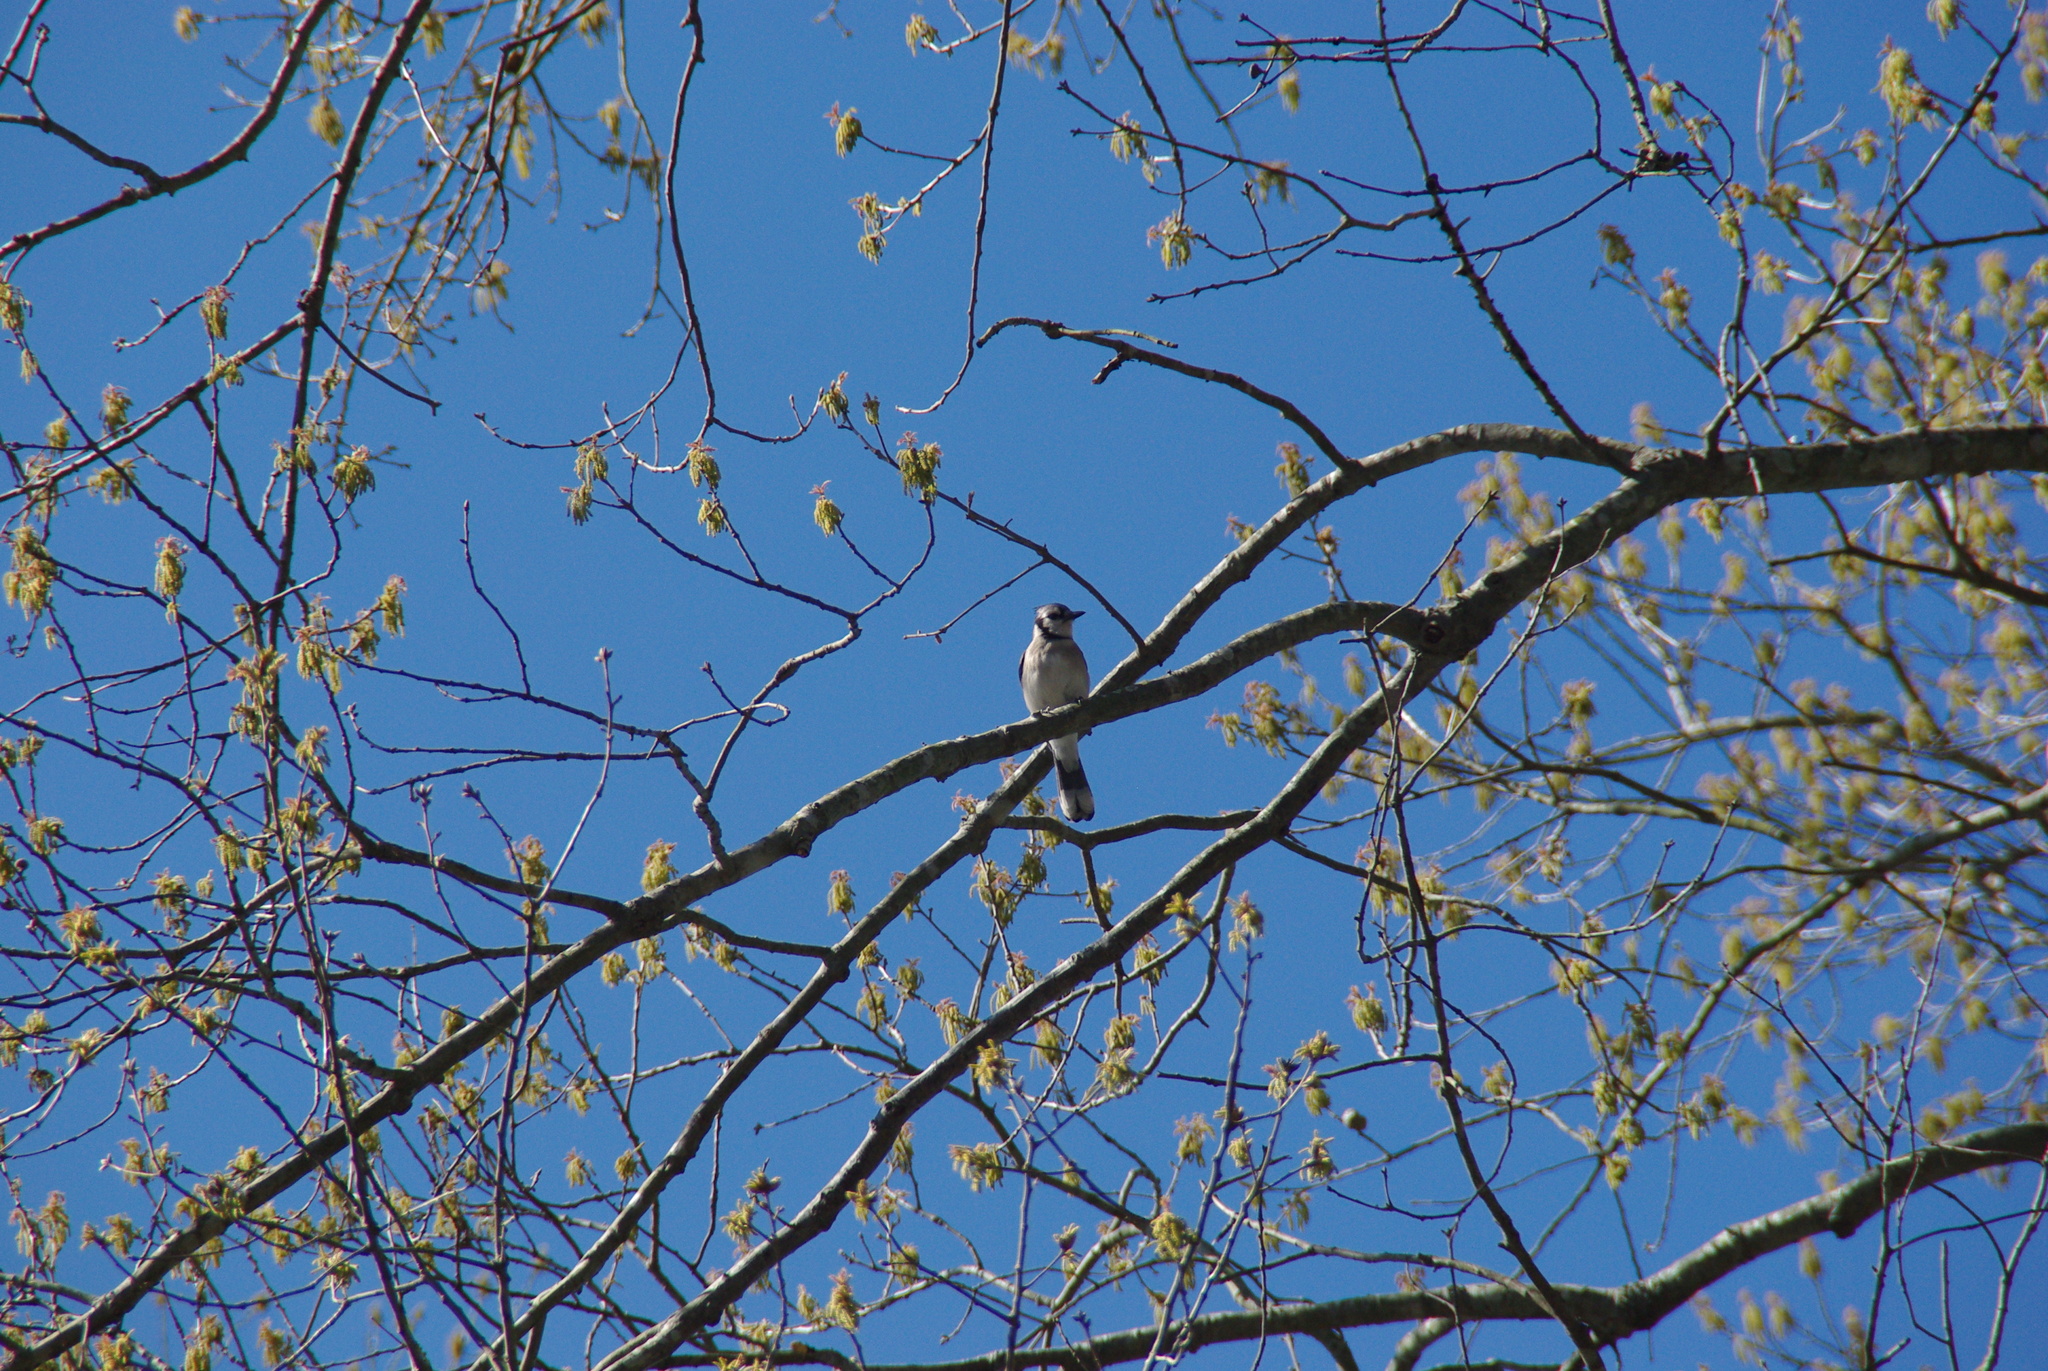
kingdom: Animalia
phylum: Chordata
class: Aves
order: Passeriformes
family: Corvidae
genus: Cyanocitta
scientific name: Cyanocitta cristata
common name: Blue jay
